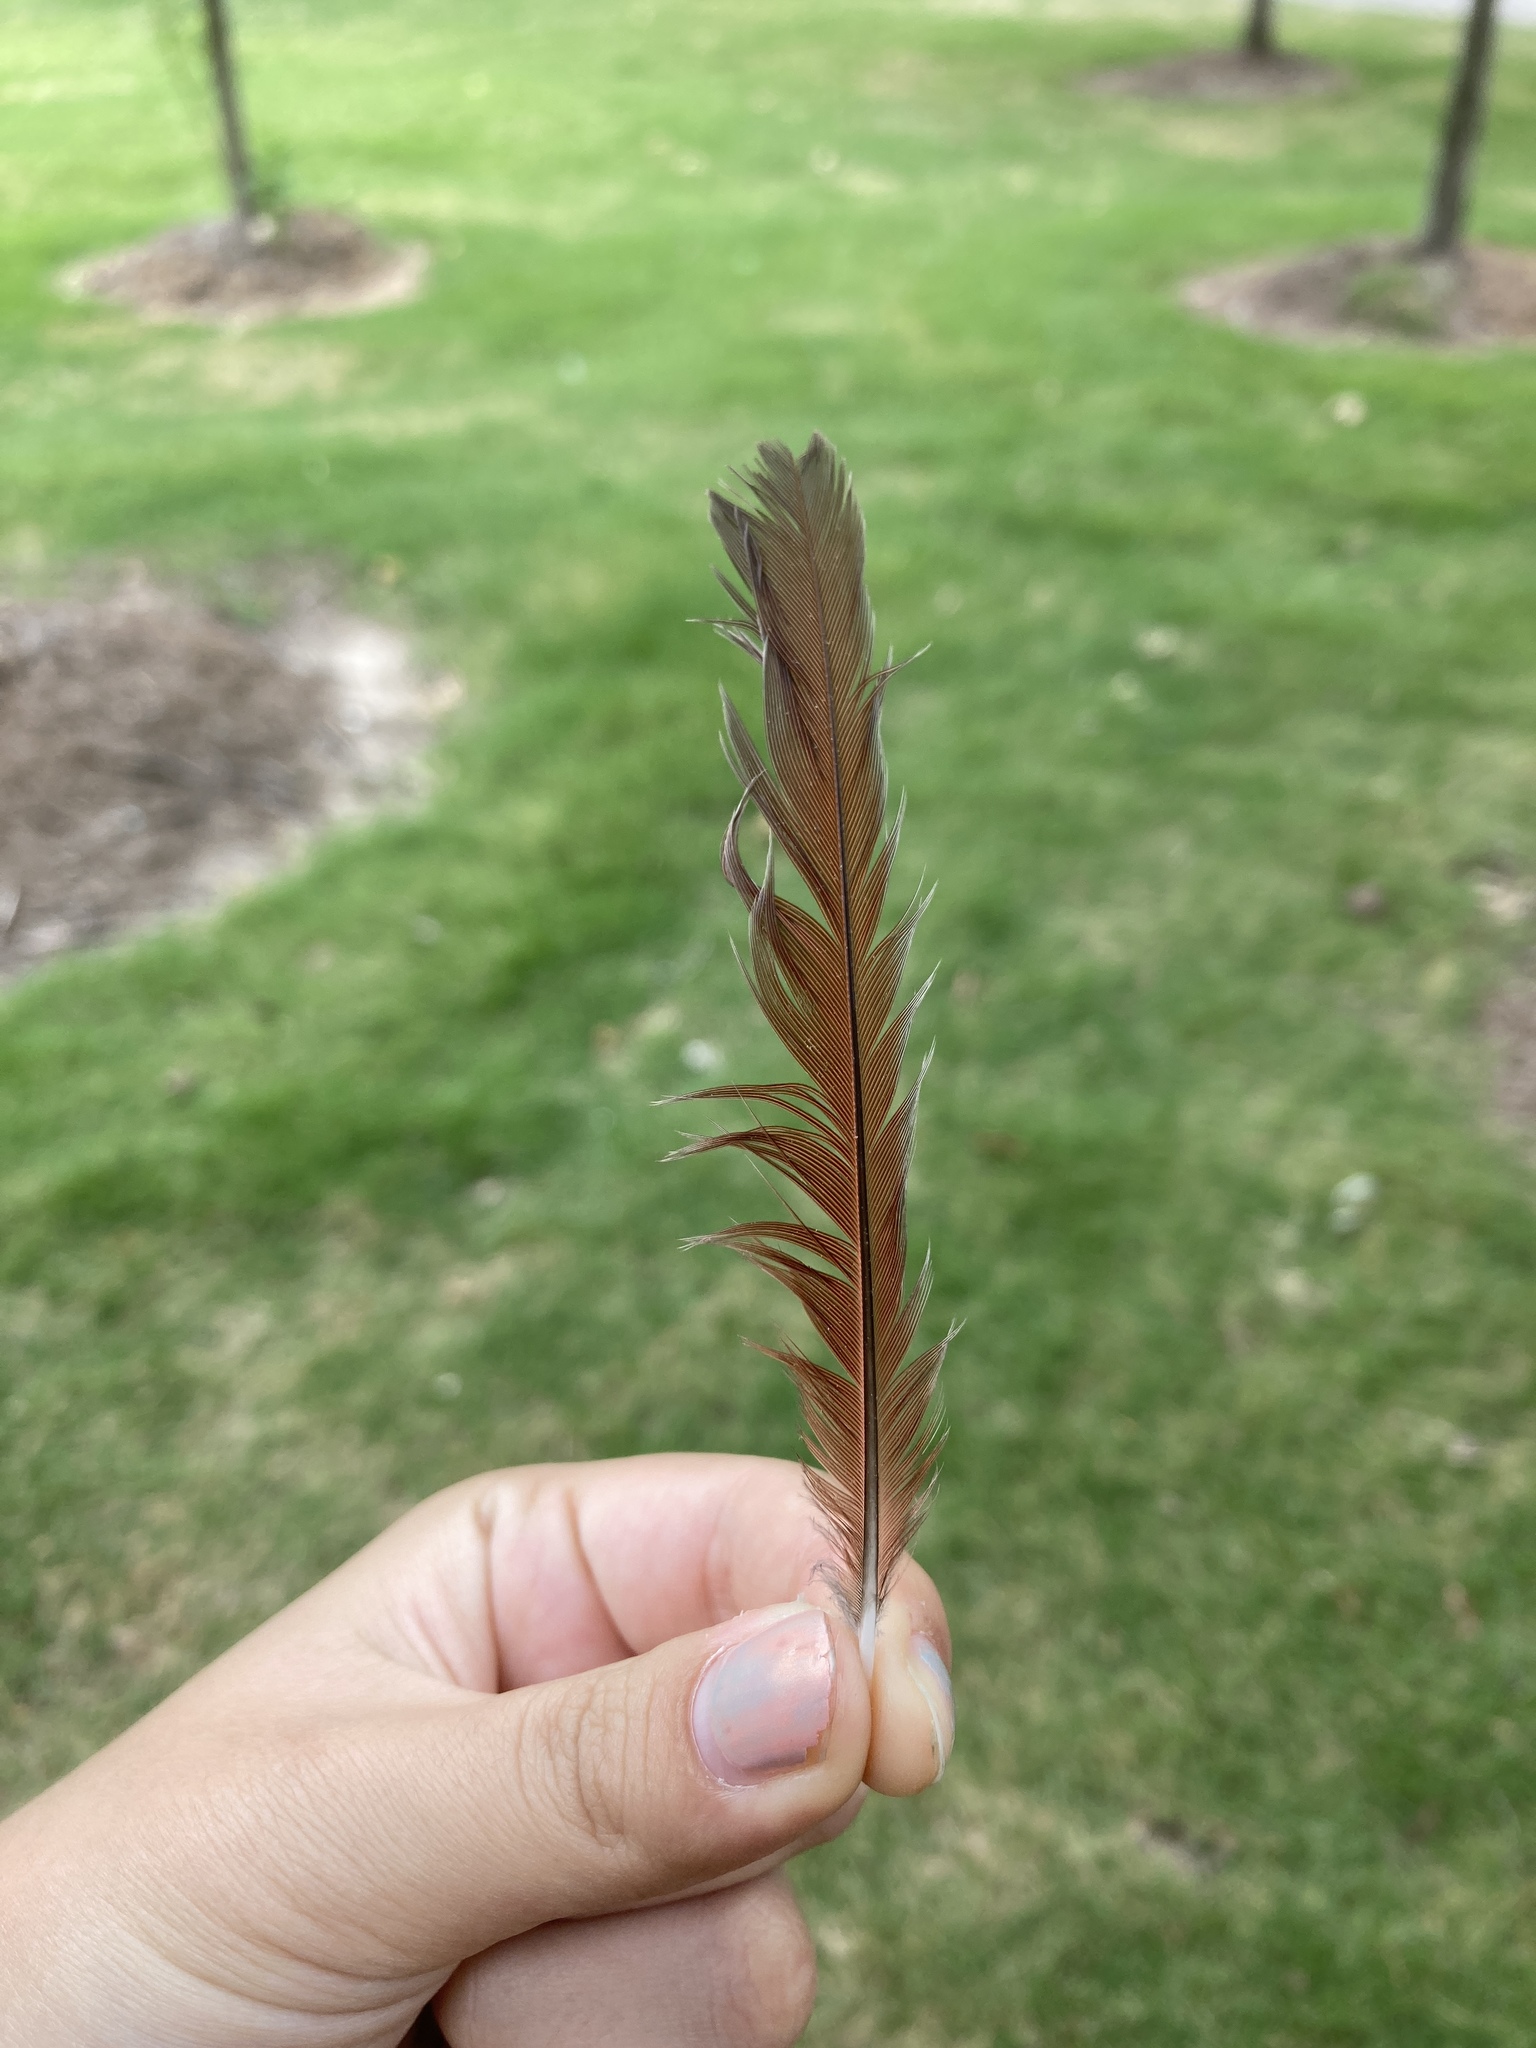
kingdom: Animalia
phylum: Chordata
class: Aves
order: Passeriformes
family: Cardinalidae
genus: Cardinalis
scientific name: Cardinalis cardinalis
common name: Northern cardinal
